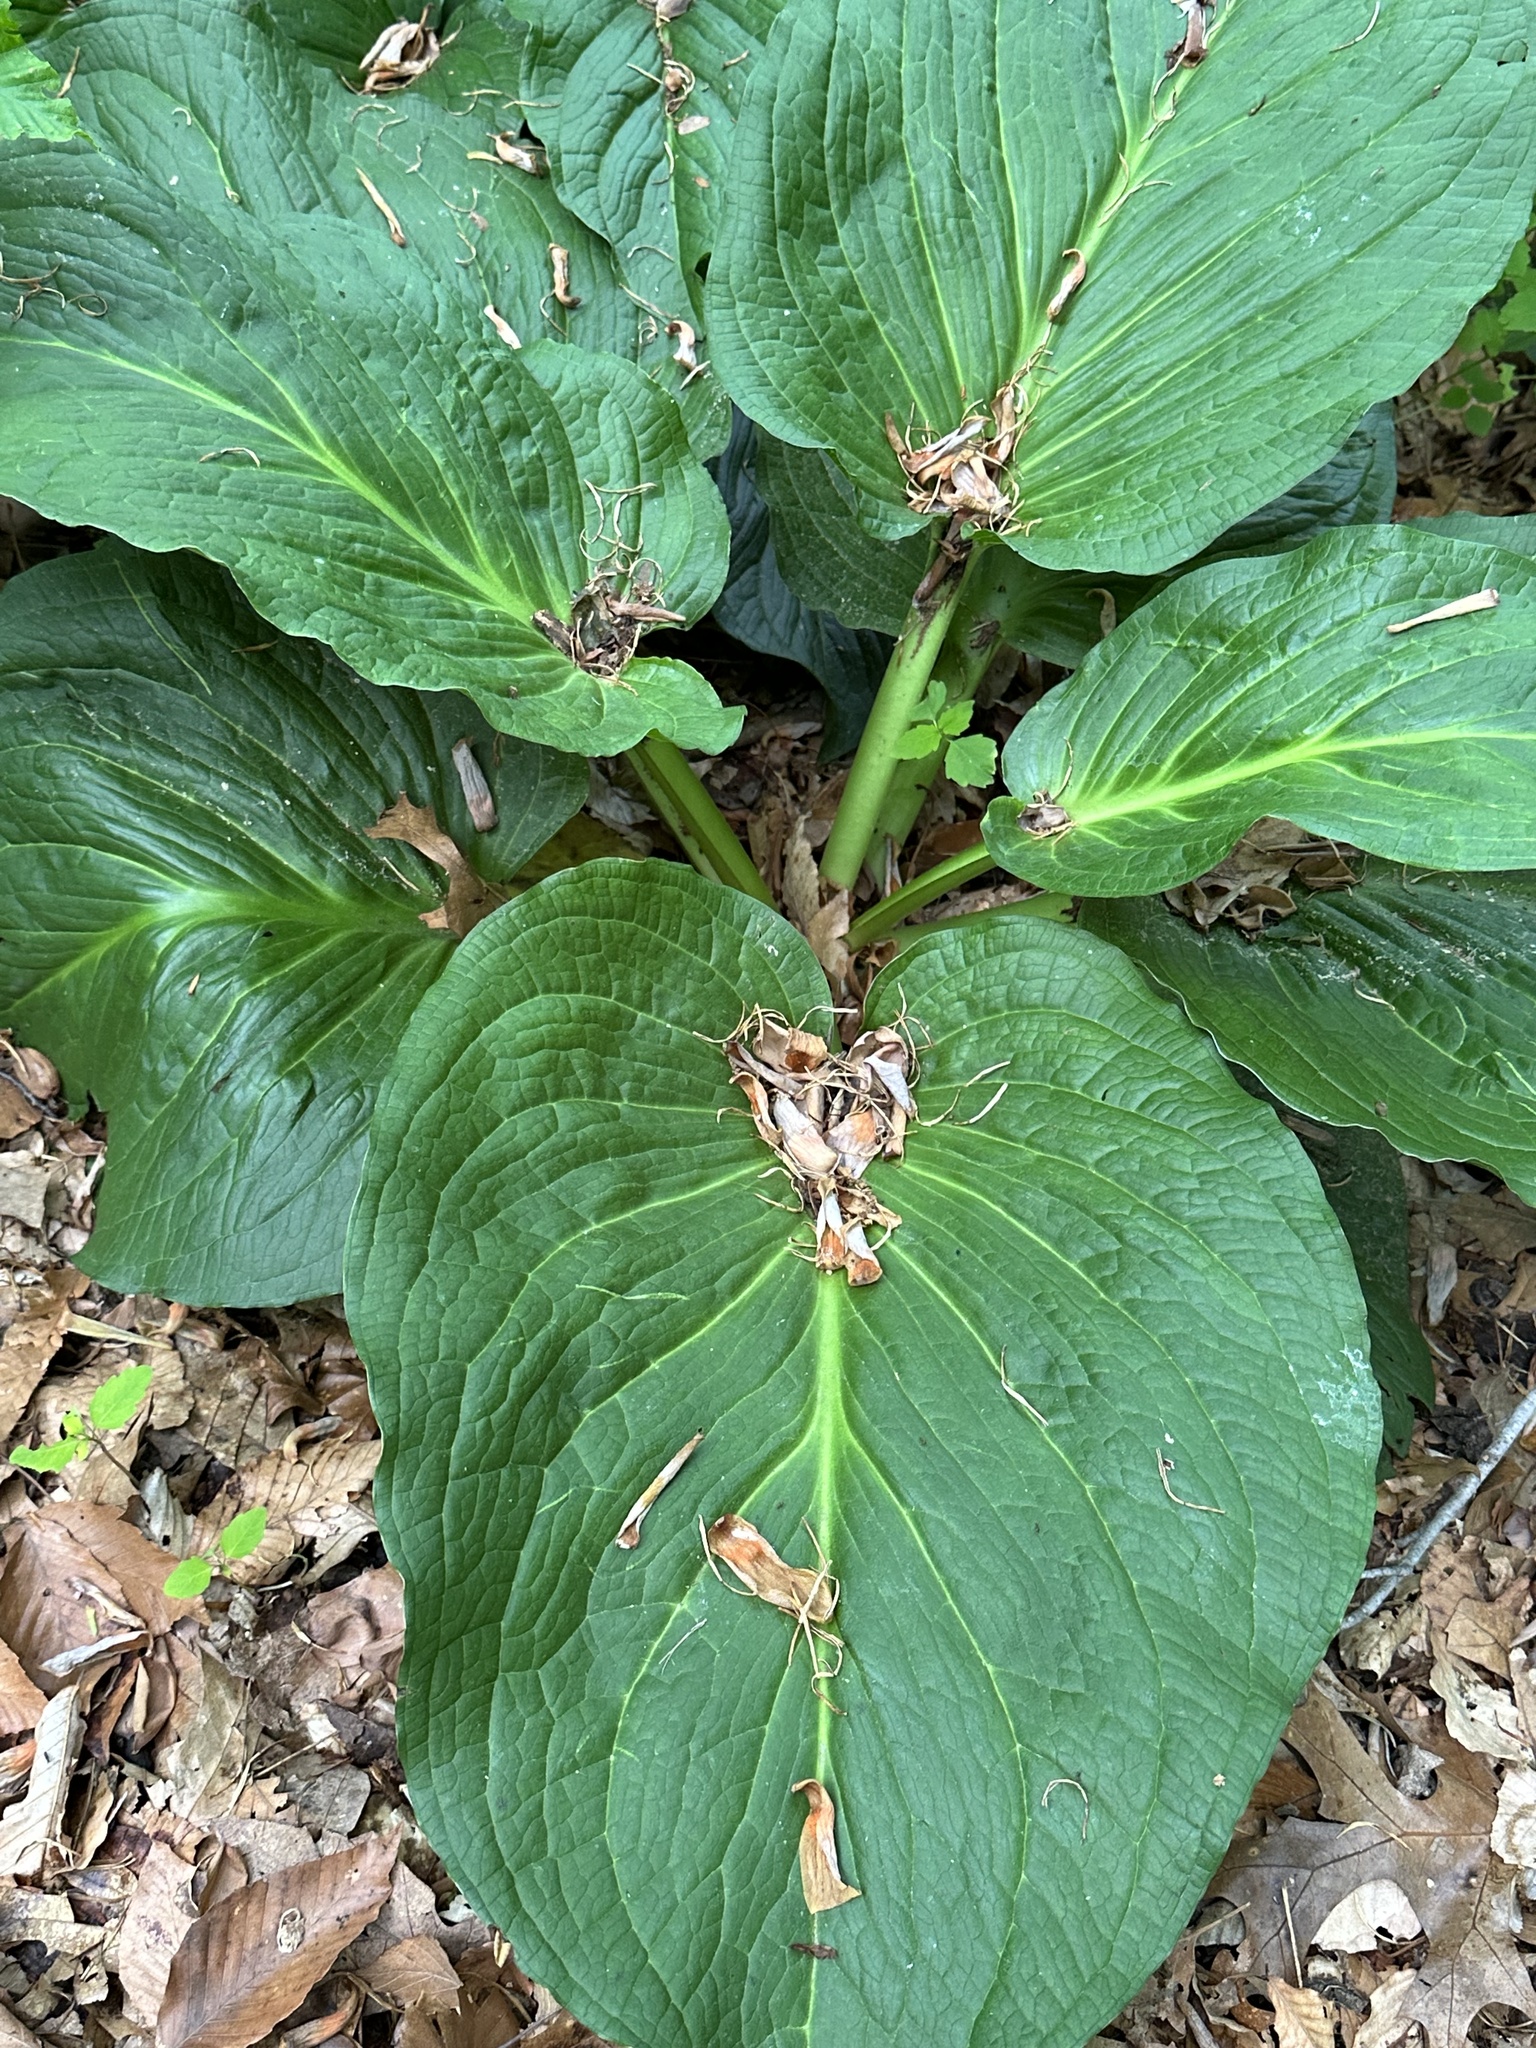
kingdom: Plantae
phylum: Tracheophyta
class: Liliopsida
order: Alismatales
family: Araceae
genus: Symplocarpus
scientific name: Symplocarpus foetidus
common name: Eastern skunk cabbage
